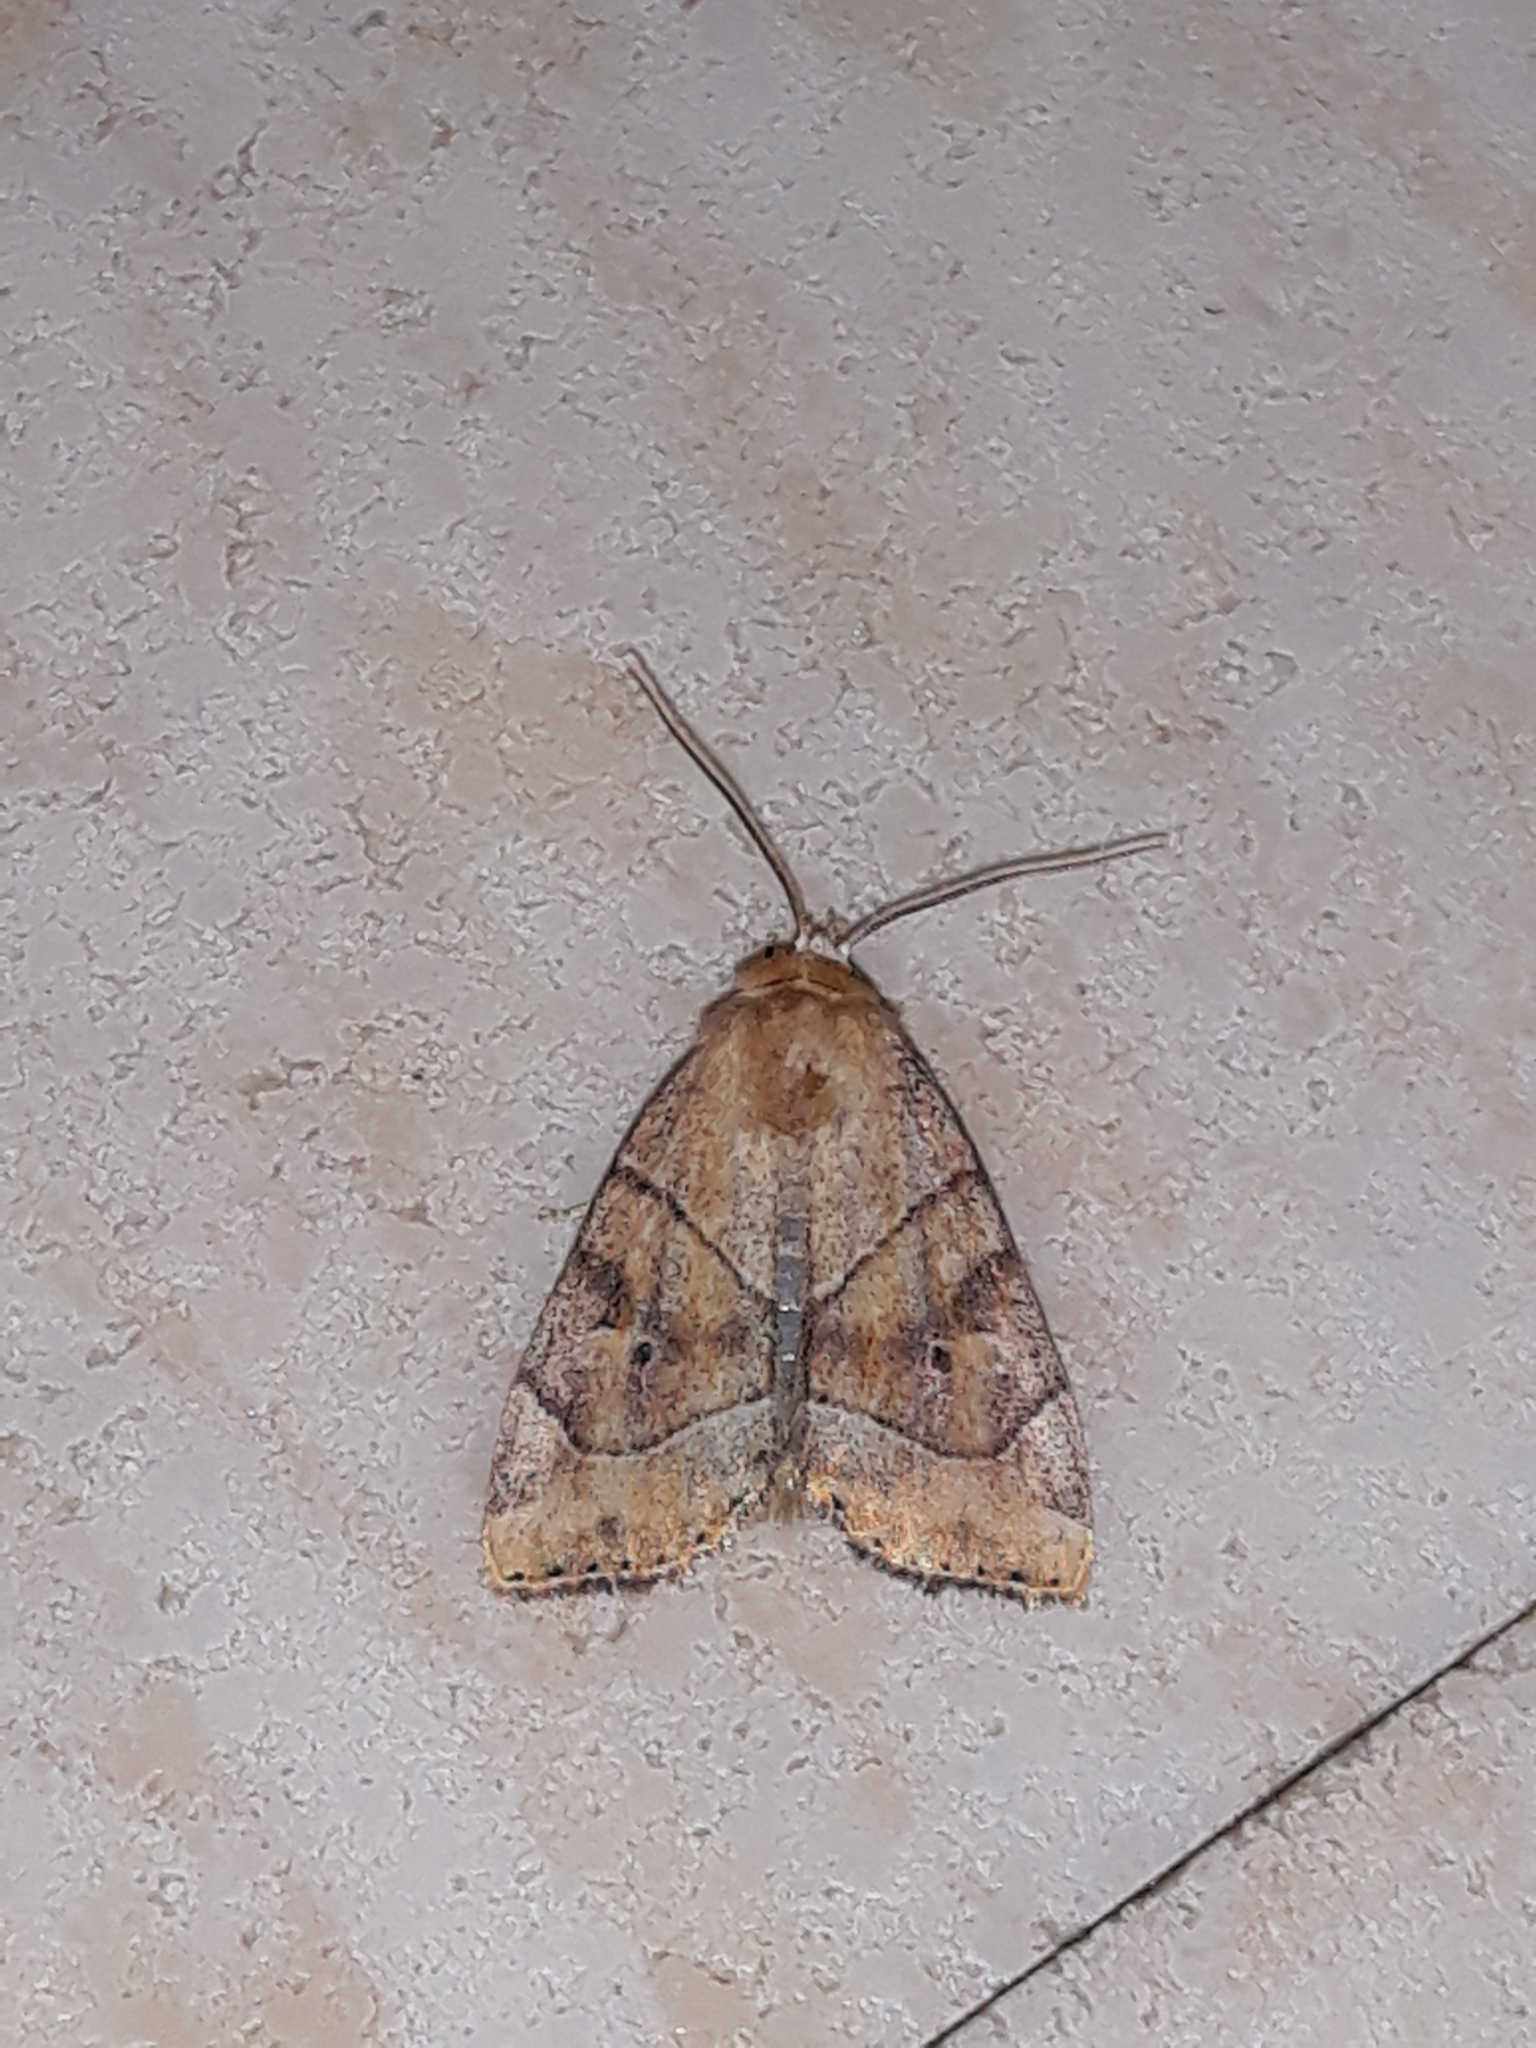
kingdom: Animalia
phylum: Arthropoda
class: Insecta
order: Lepidoptera
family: Noctuidae
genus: Cosmia
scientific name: Cosmia trapezina
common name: Dun-bar
